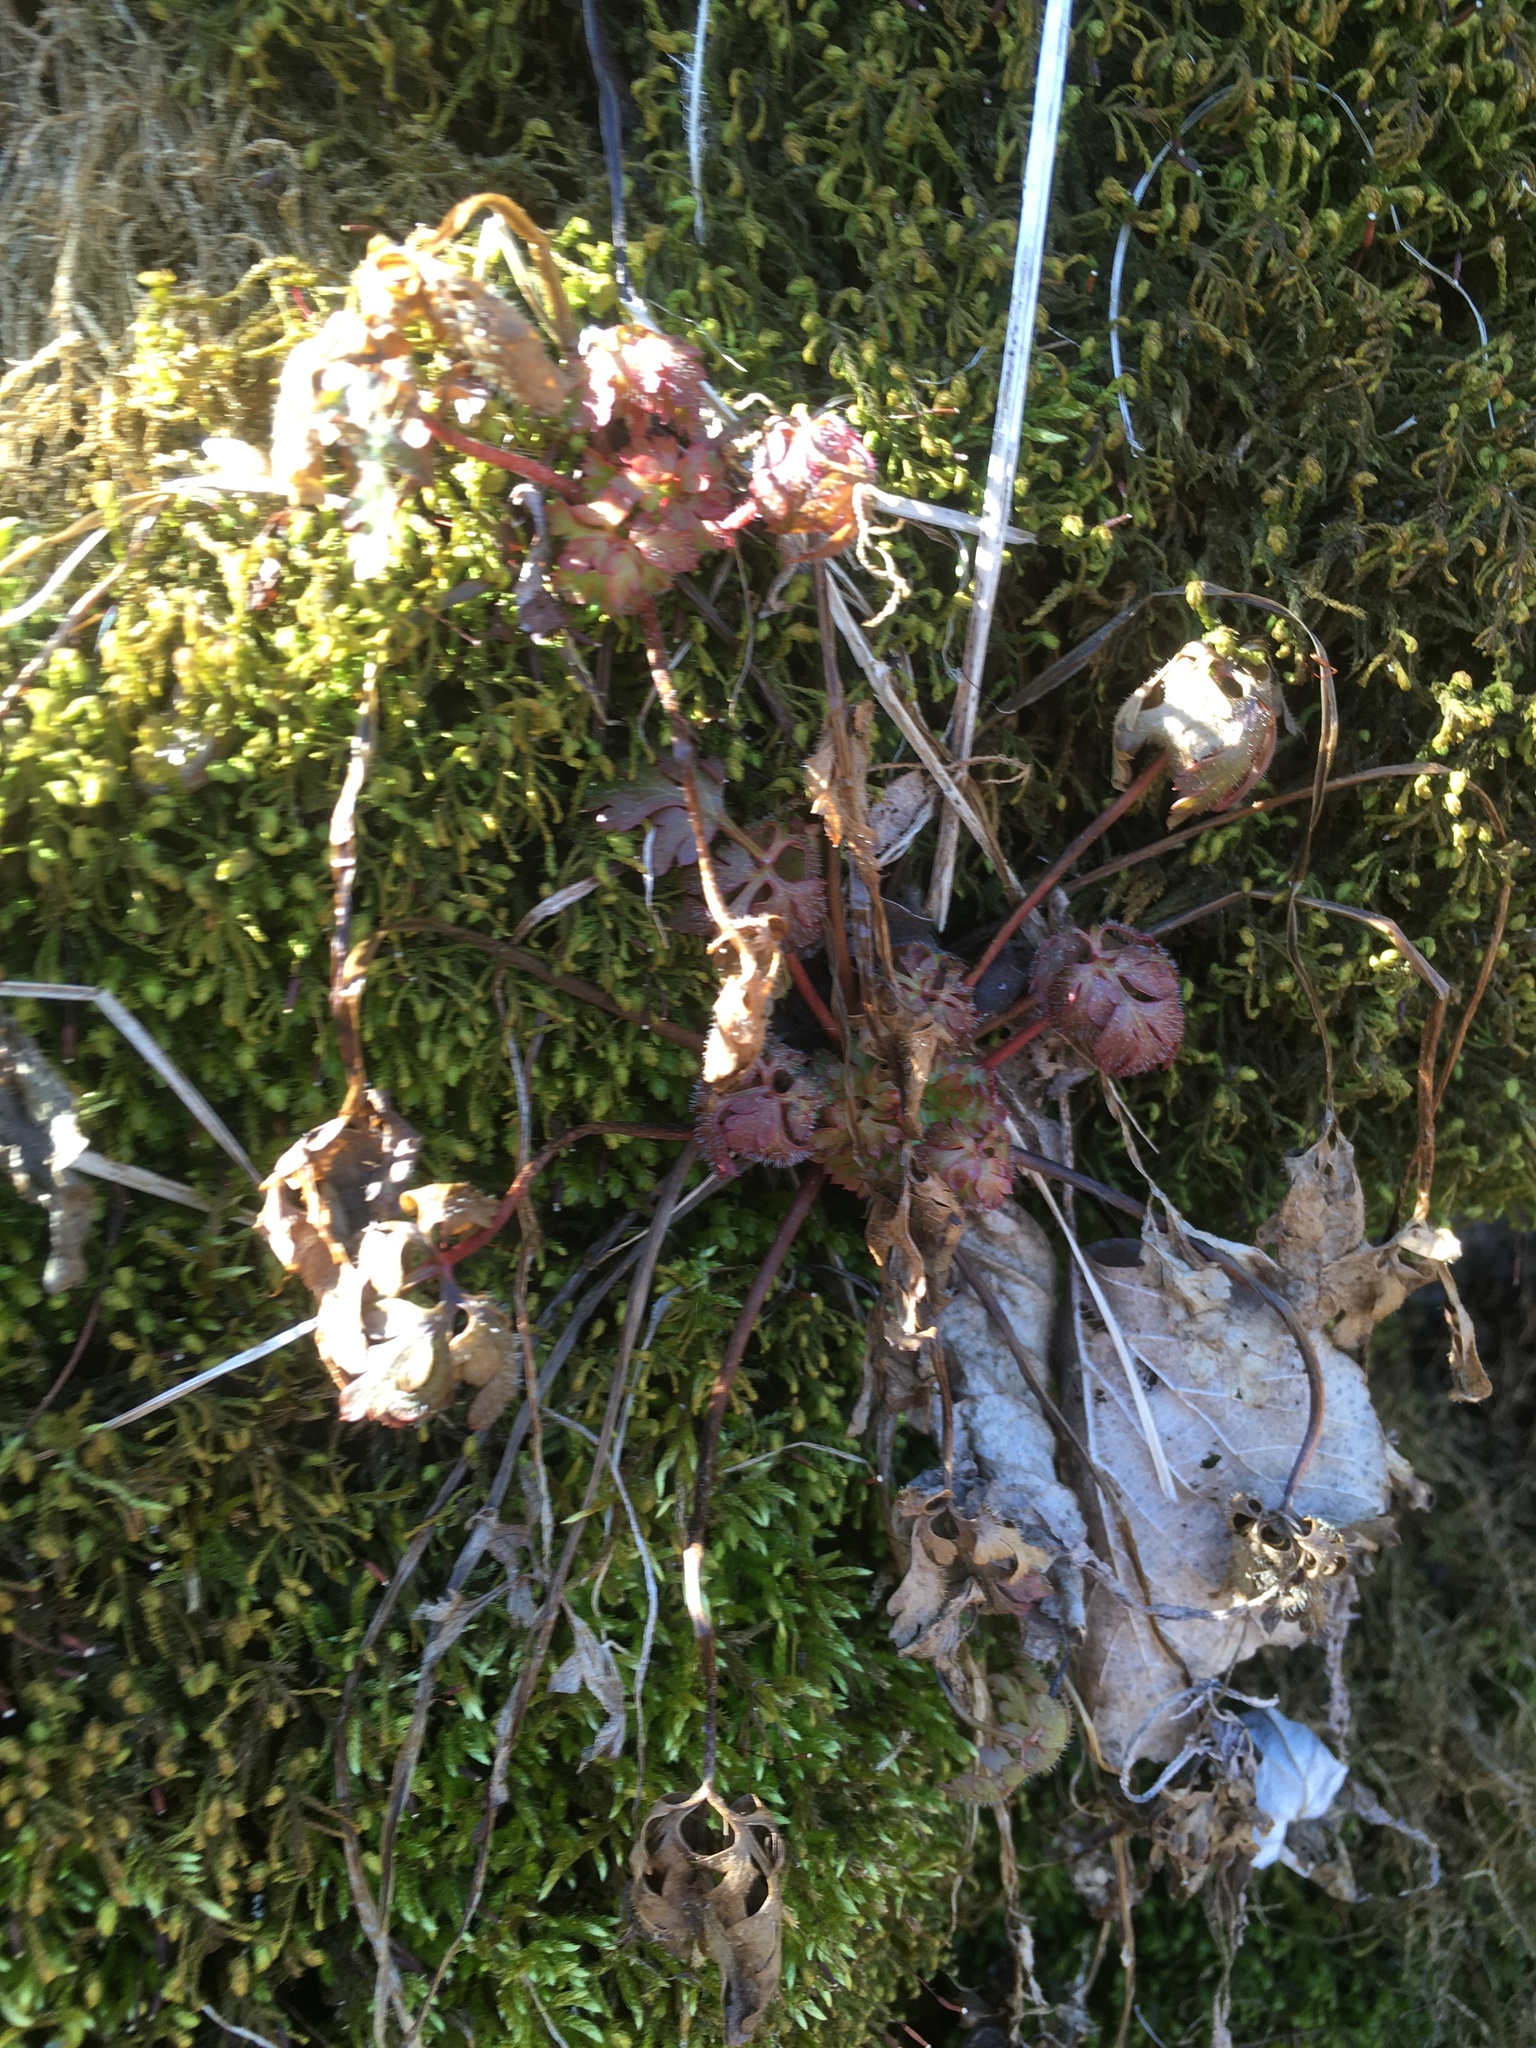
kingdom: Plantae
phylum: Tracheophyta
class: Magnoliopsida
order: Geraniales
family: Geraniaceae
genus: Geranium
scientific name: Geranium robertianum
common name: Herb-robert
